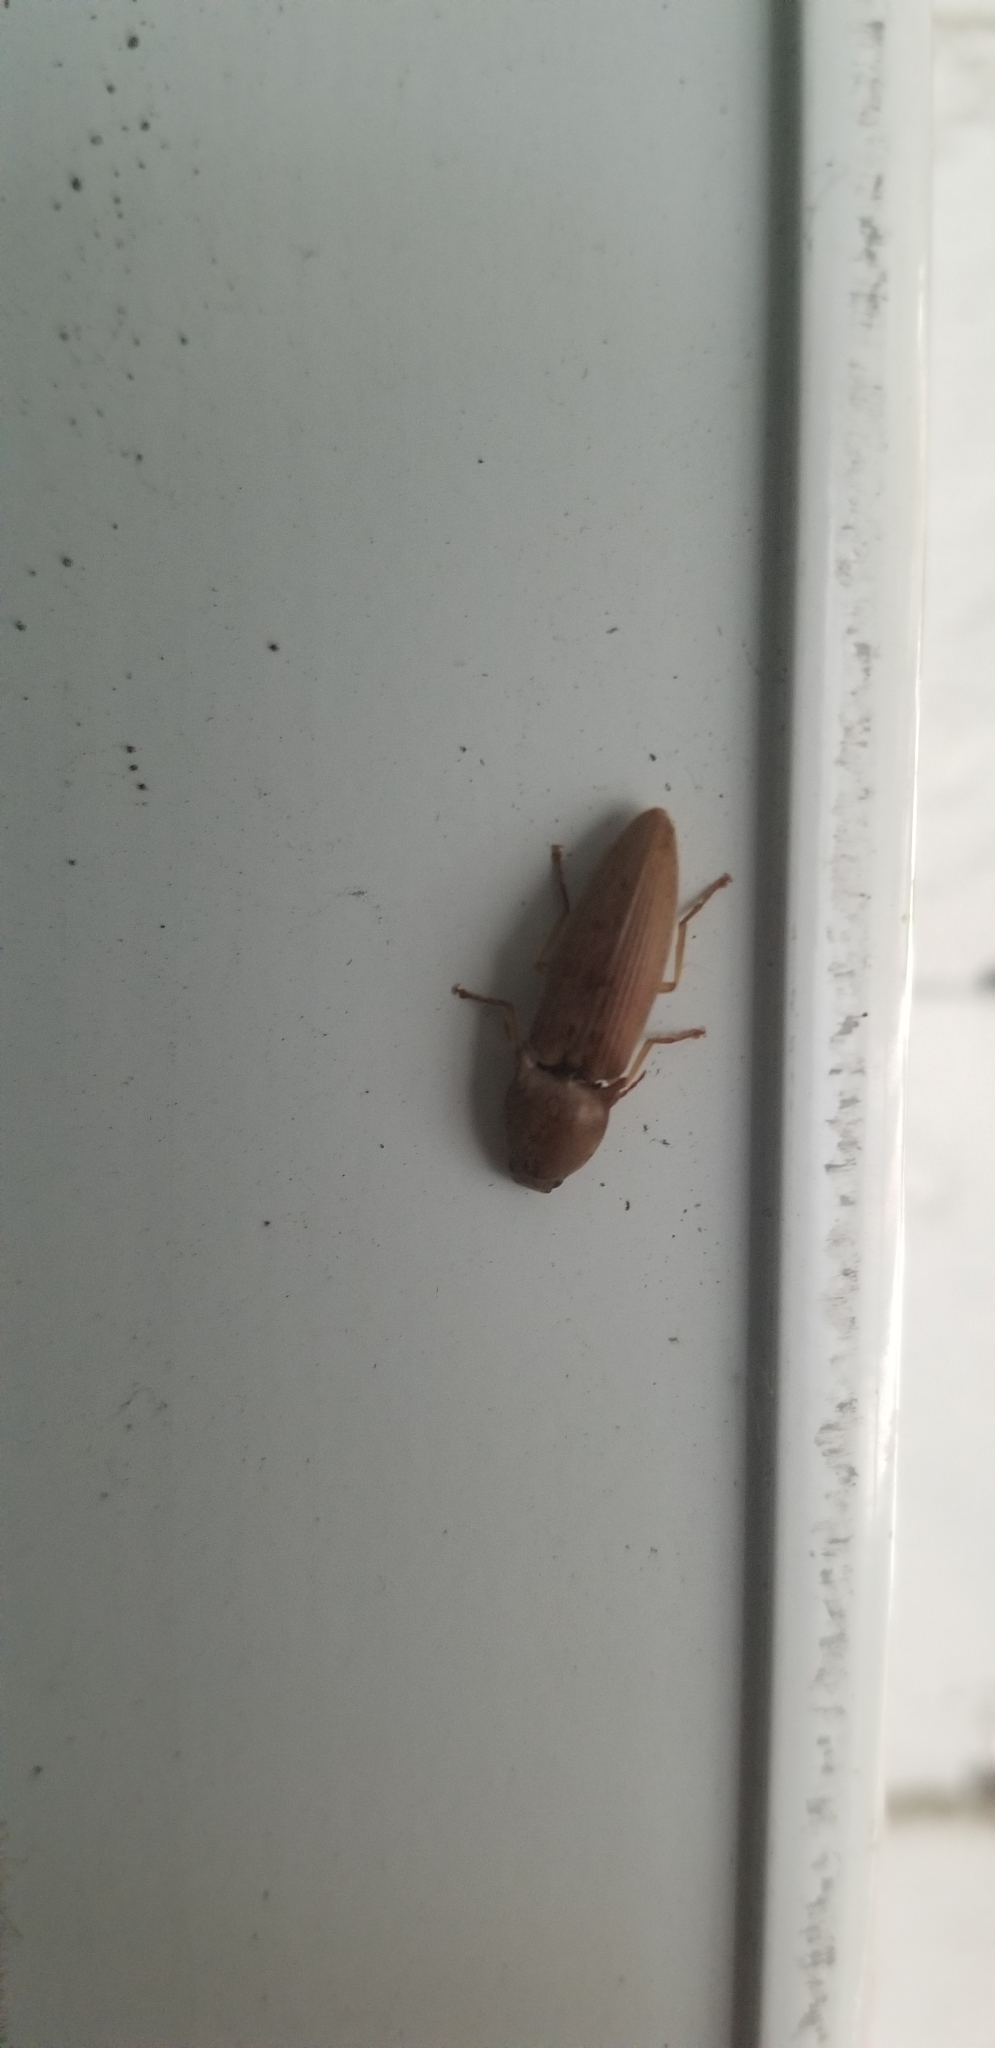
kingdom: Animalia
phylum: Arthropoda
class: Insecta
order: Coleoptera
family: Elateridae
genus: Monocrepidius
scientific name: Monocrepidius lividus
